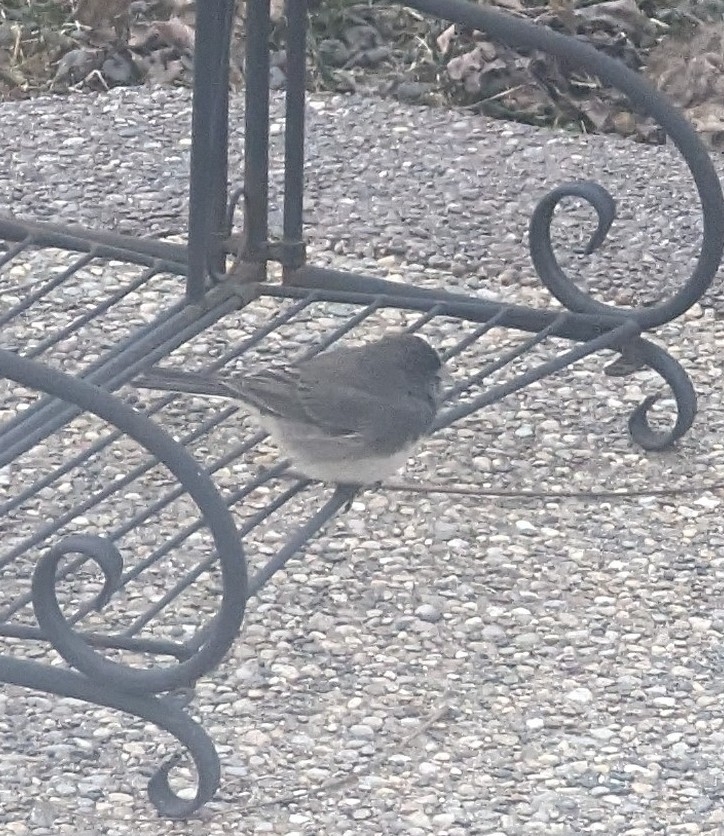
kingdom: Animalia
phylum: Chordata
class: Aves
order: Passeriformes
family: Passerellidae
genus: Junco
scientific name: Junco hyemalis
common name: Dark-eyed junco
